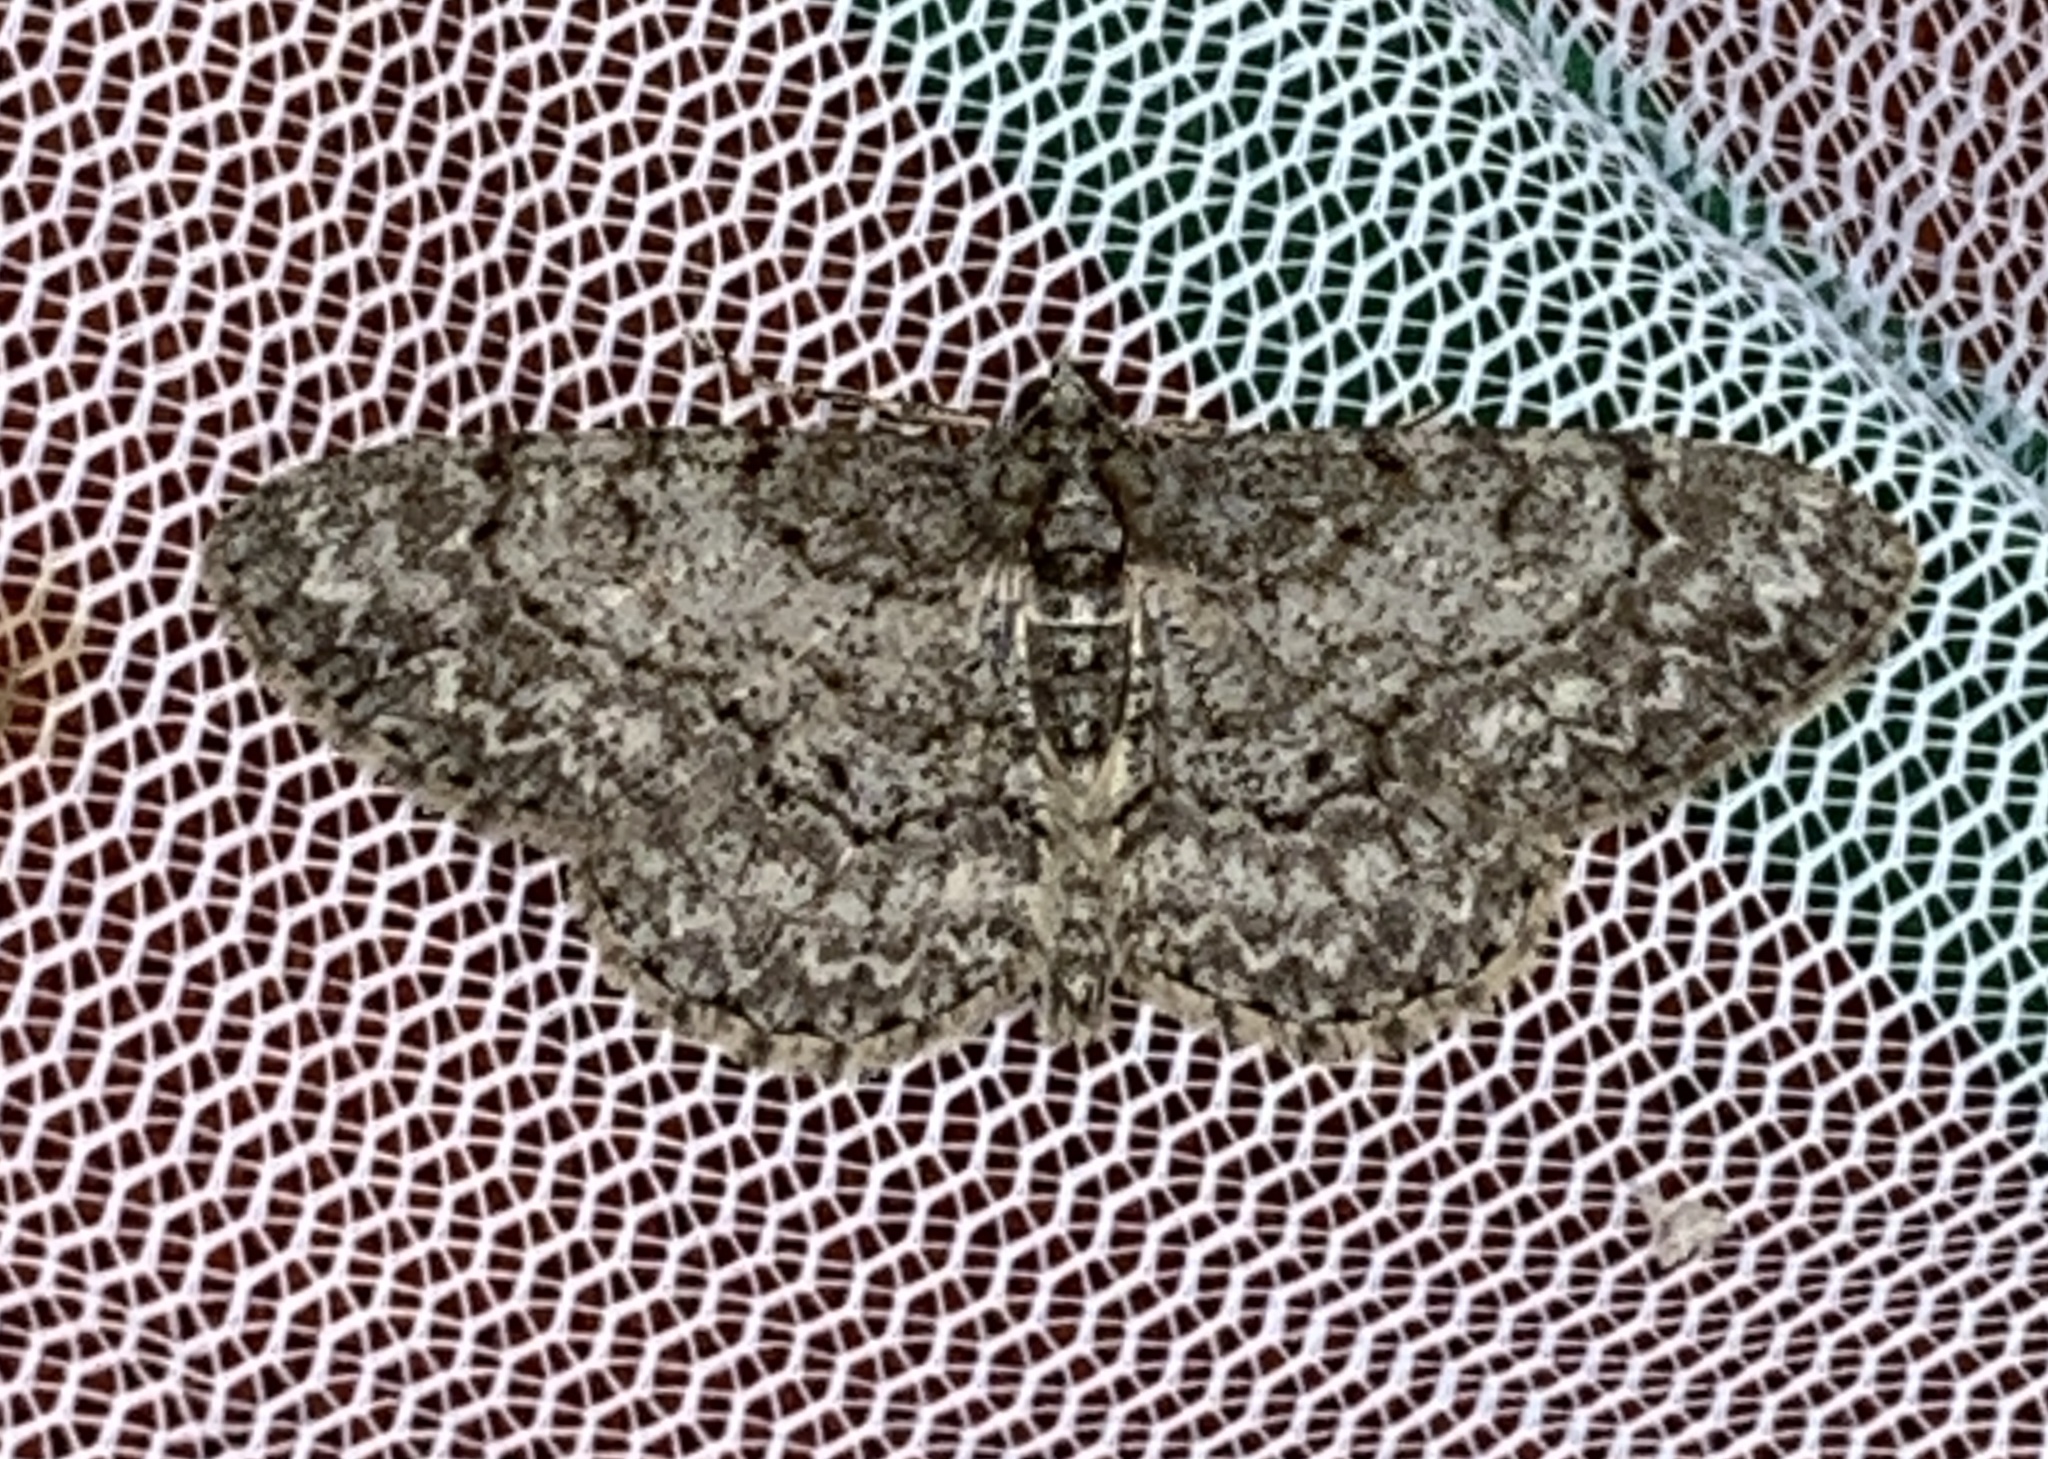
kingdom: Animalia
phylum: Arthropoda
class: Insecta
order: Lepidoptera
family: Geometridae
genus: Protoboarmia
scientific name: Protoboarmia porcelaria
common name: Porcelain gray
